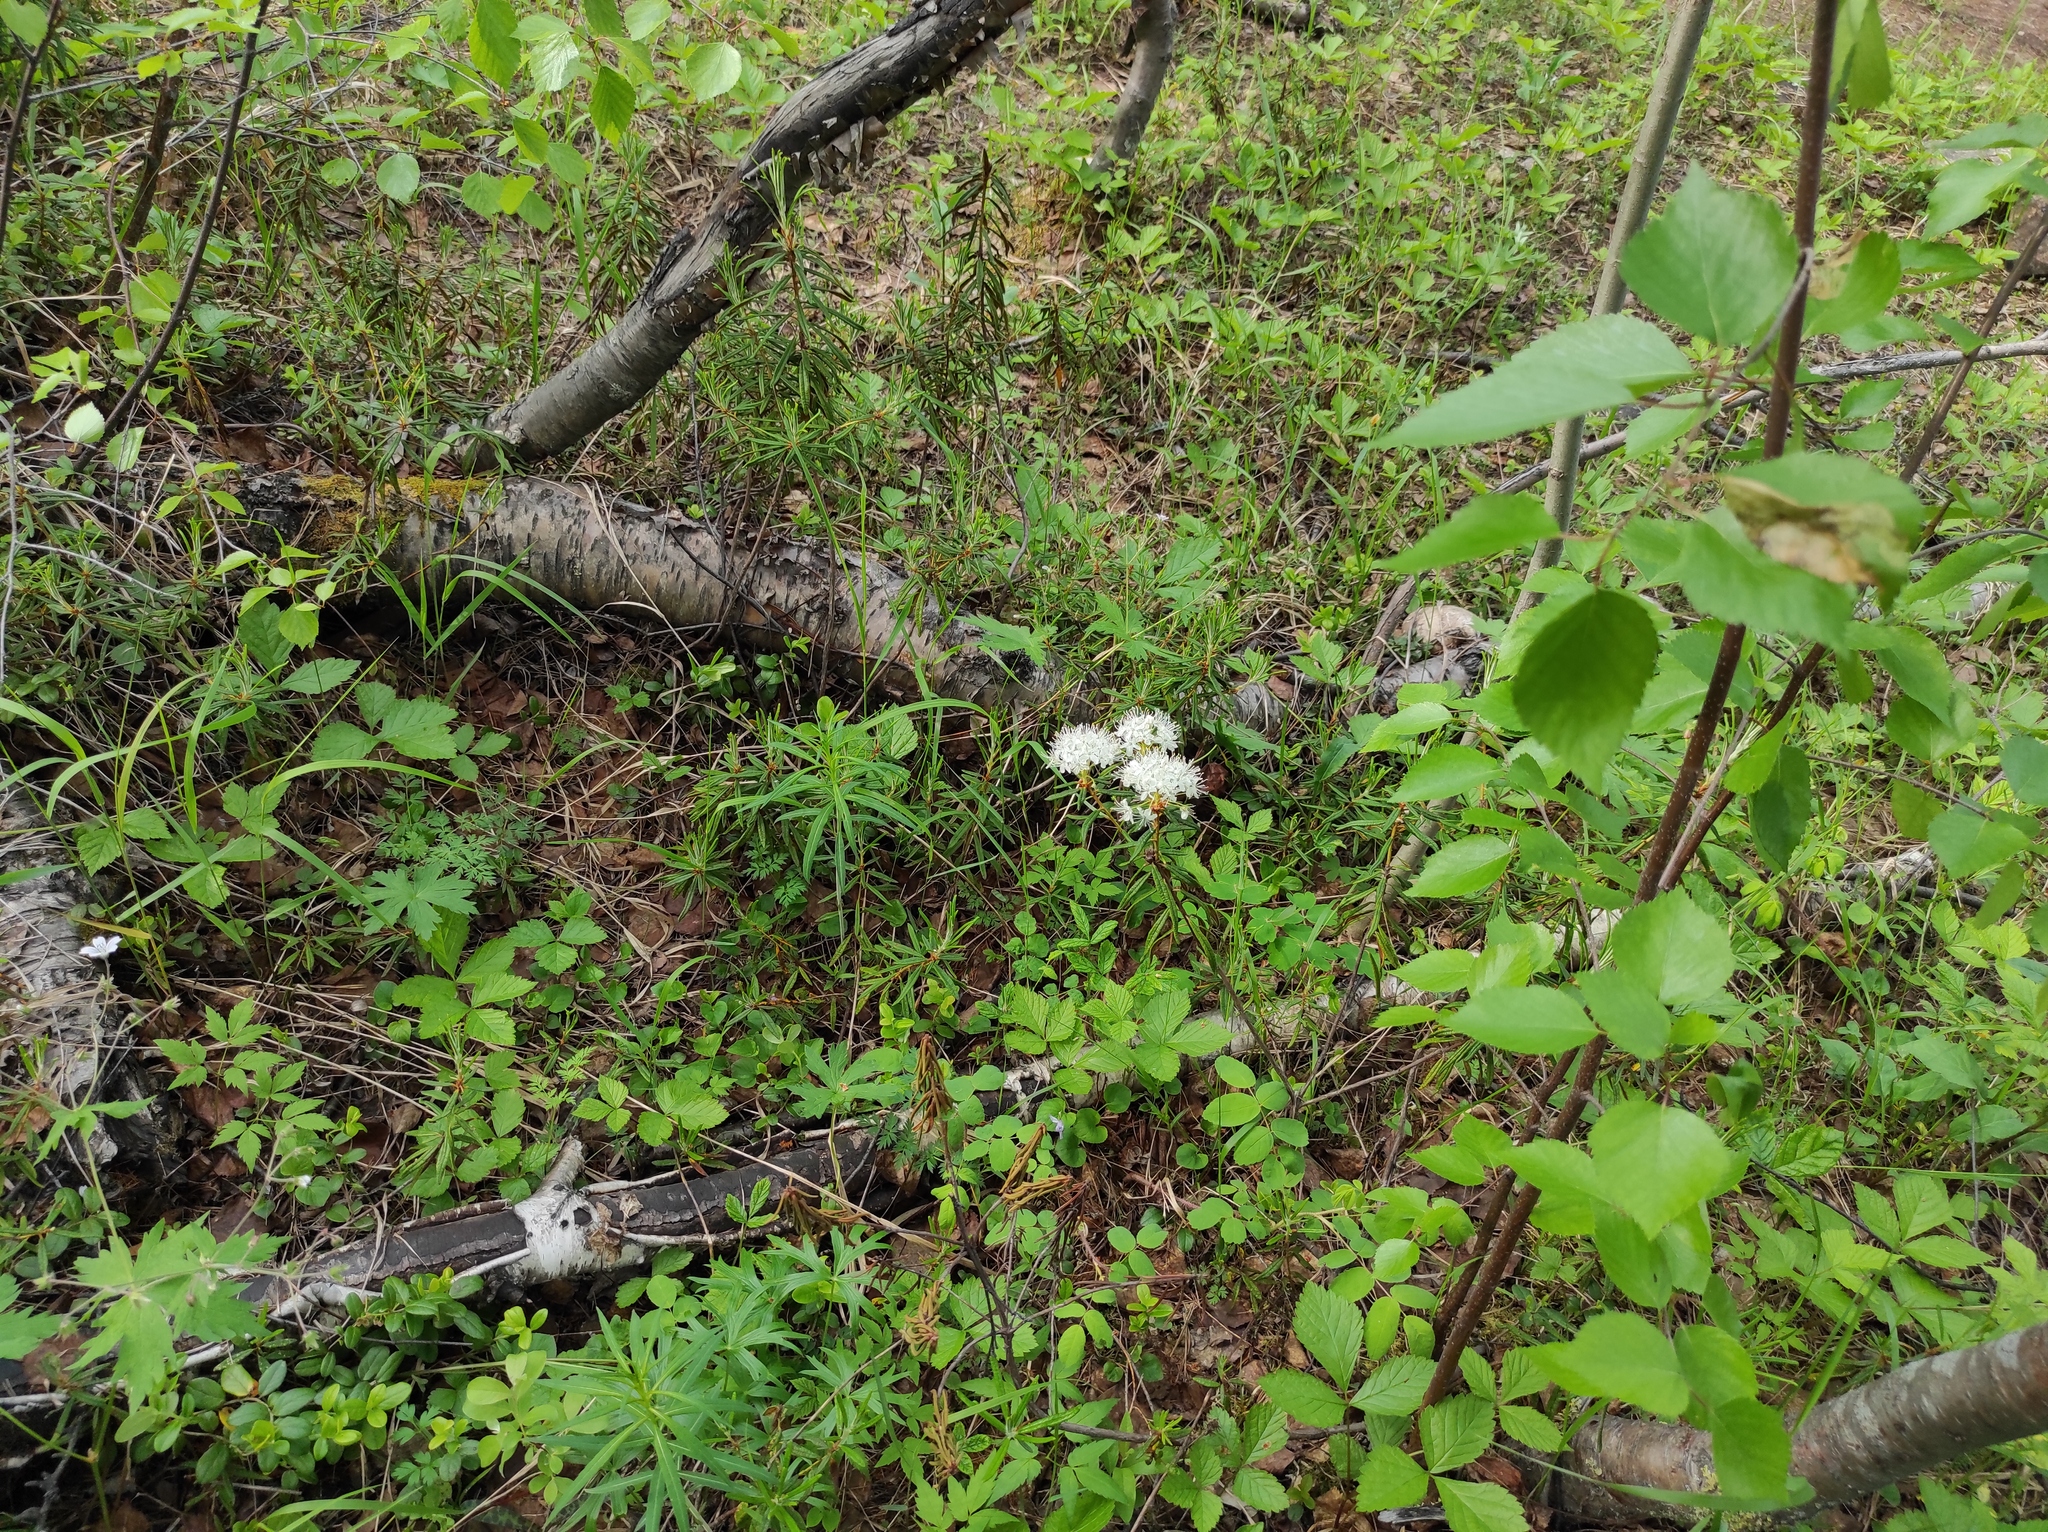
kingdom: Plantae
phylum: Tracheophyta
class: Magnoliopsida
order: Rosales
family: Rosaceae
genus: Rubus
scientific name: Rubus saxatilis
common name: Stone bramble
